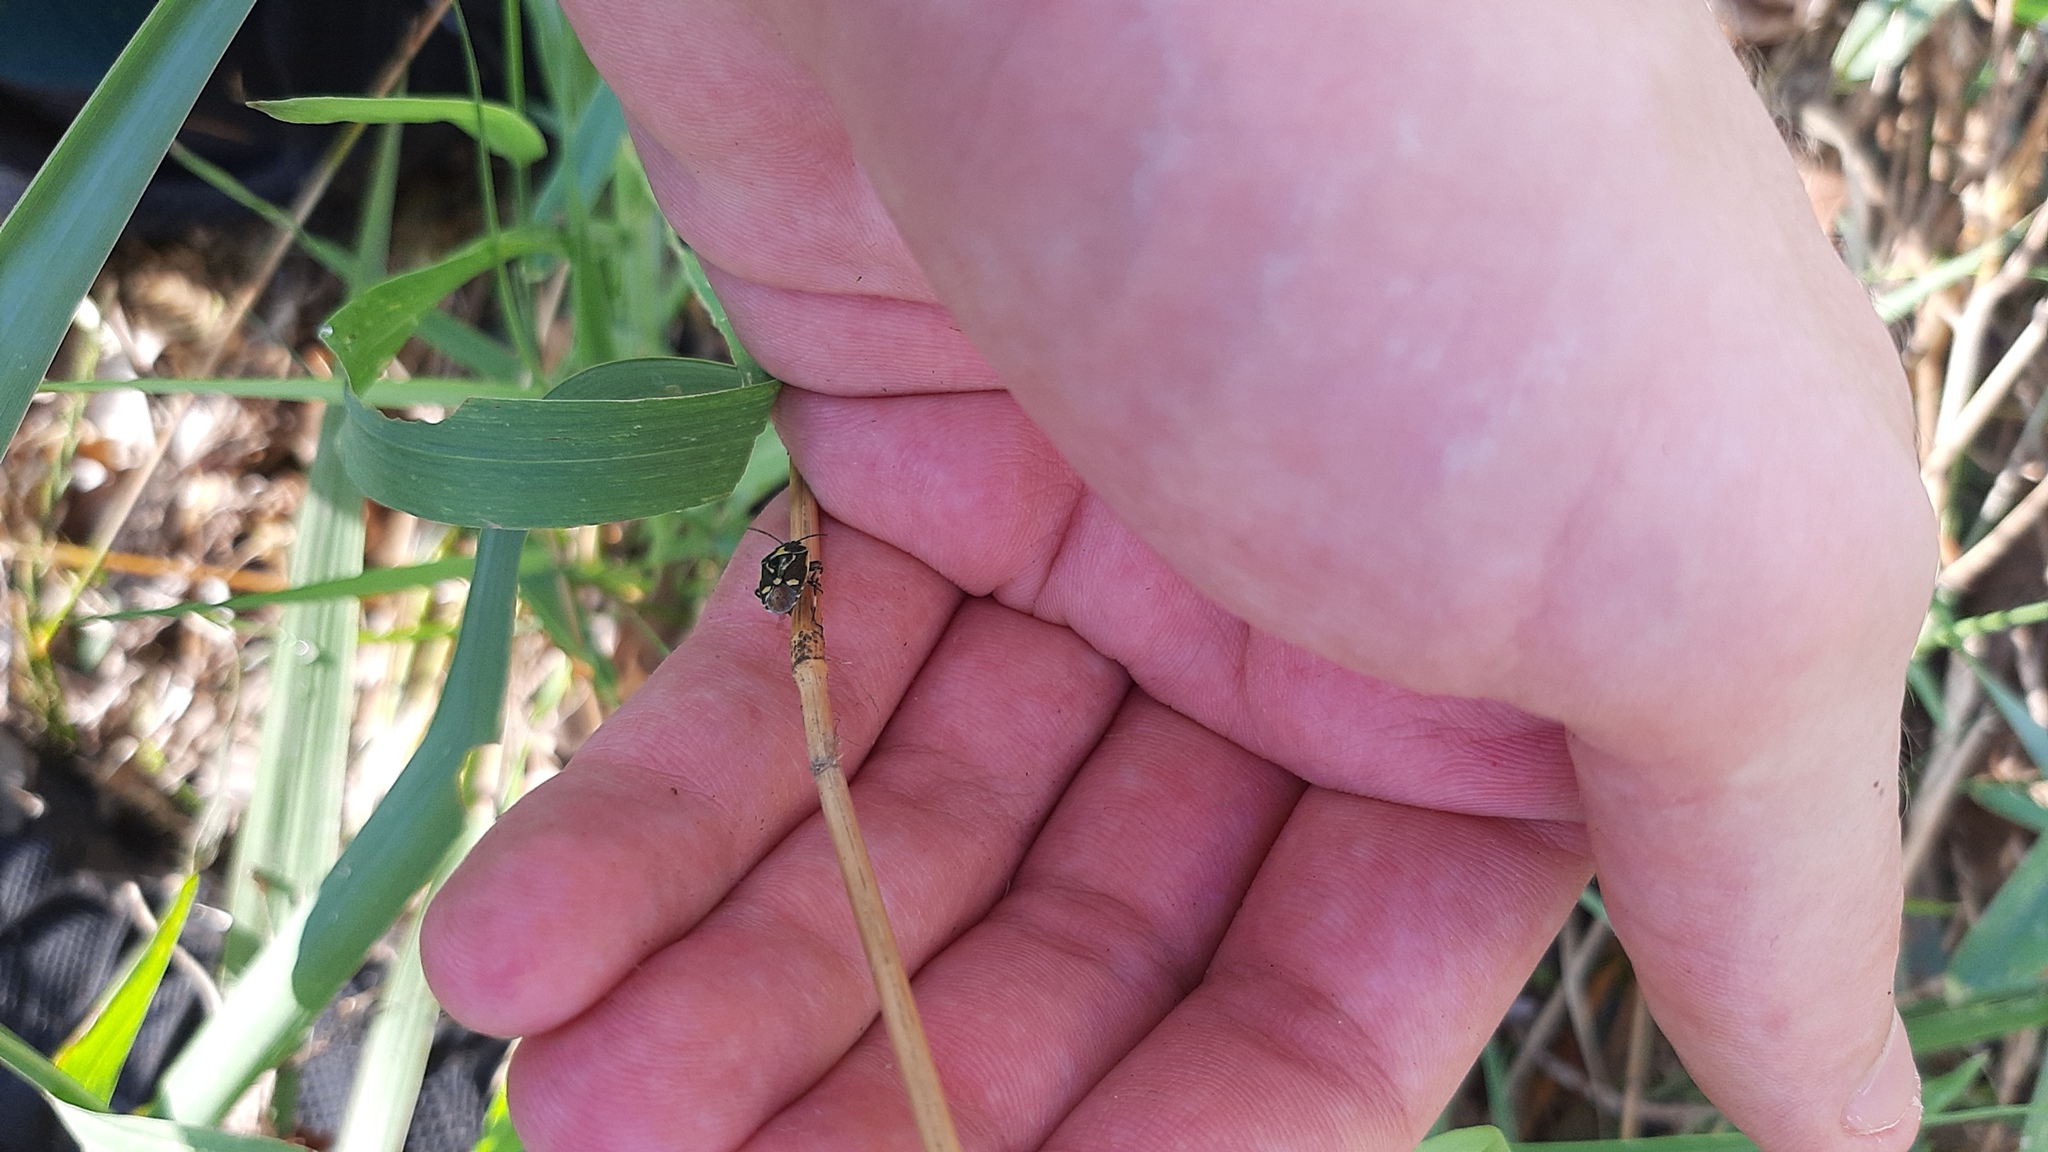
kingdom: Animalia
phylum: Arthropoda
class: Insecta
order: Hemiptera
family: Pentatomidae
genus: Eurydema
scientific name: Eurydema oleracea
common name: Cabbage bug
